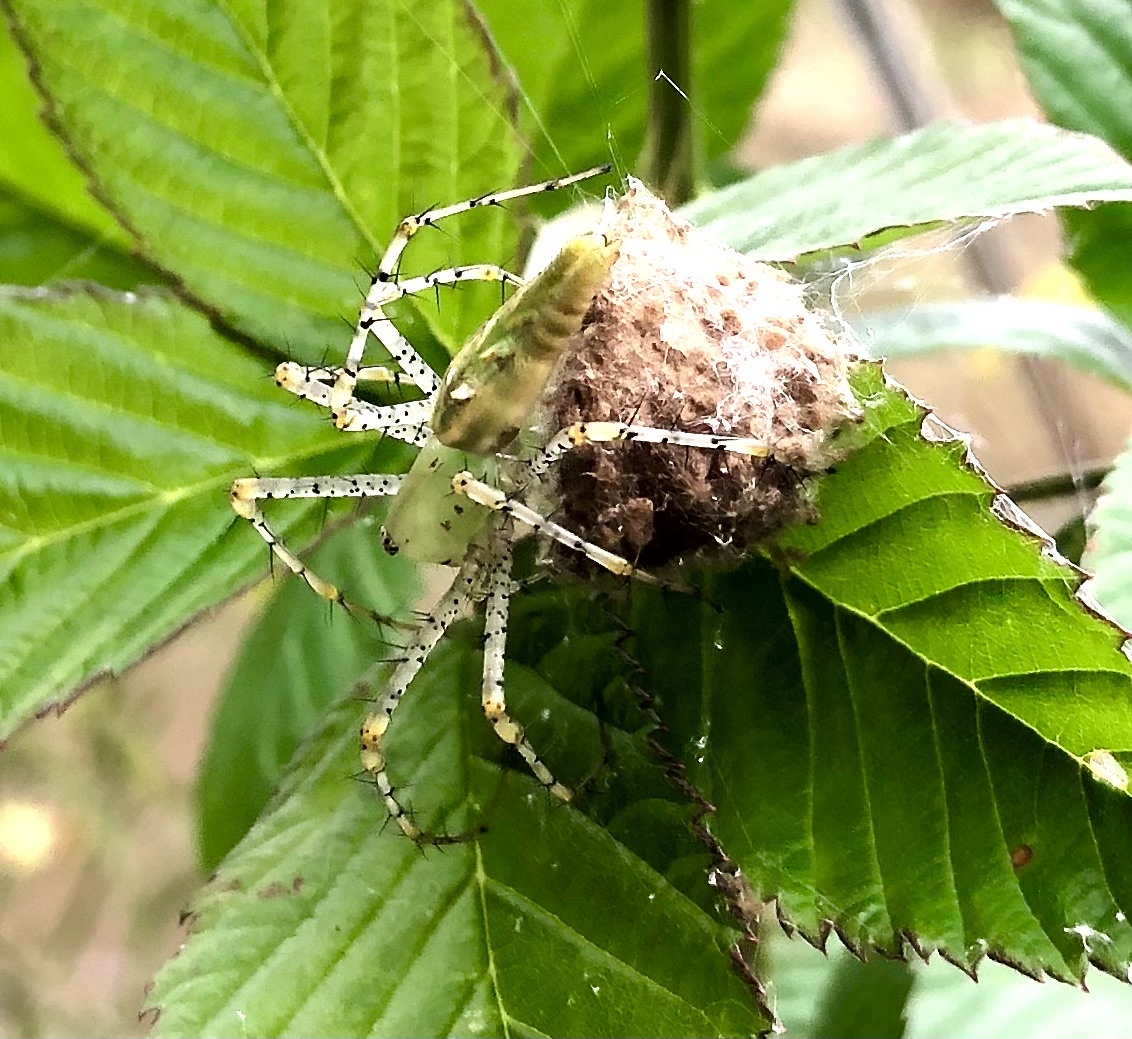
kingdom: Animalia
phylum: Arthropoda
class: Arachnida
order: Araneae
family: Oxyopidae
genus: Peucetia
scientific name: Peucetia viridans
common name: Lynx spiders
